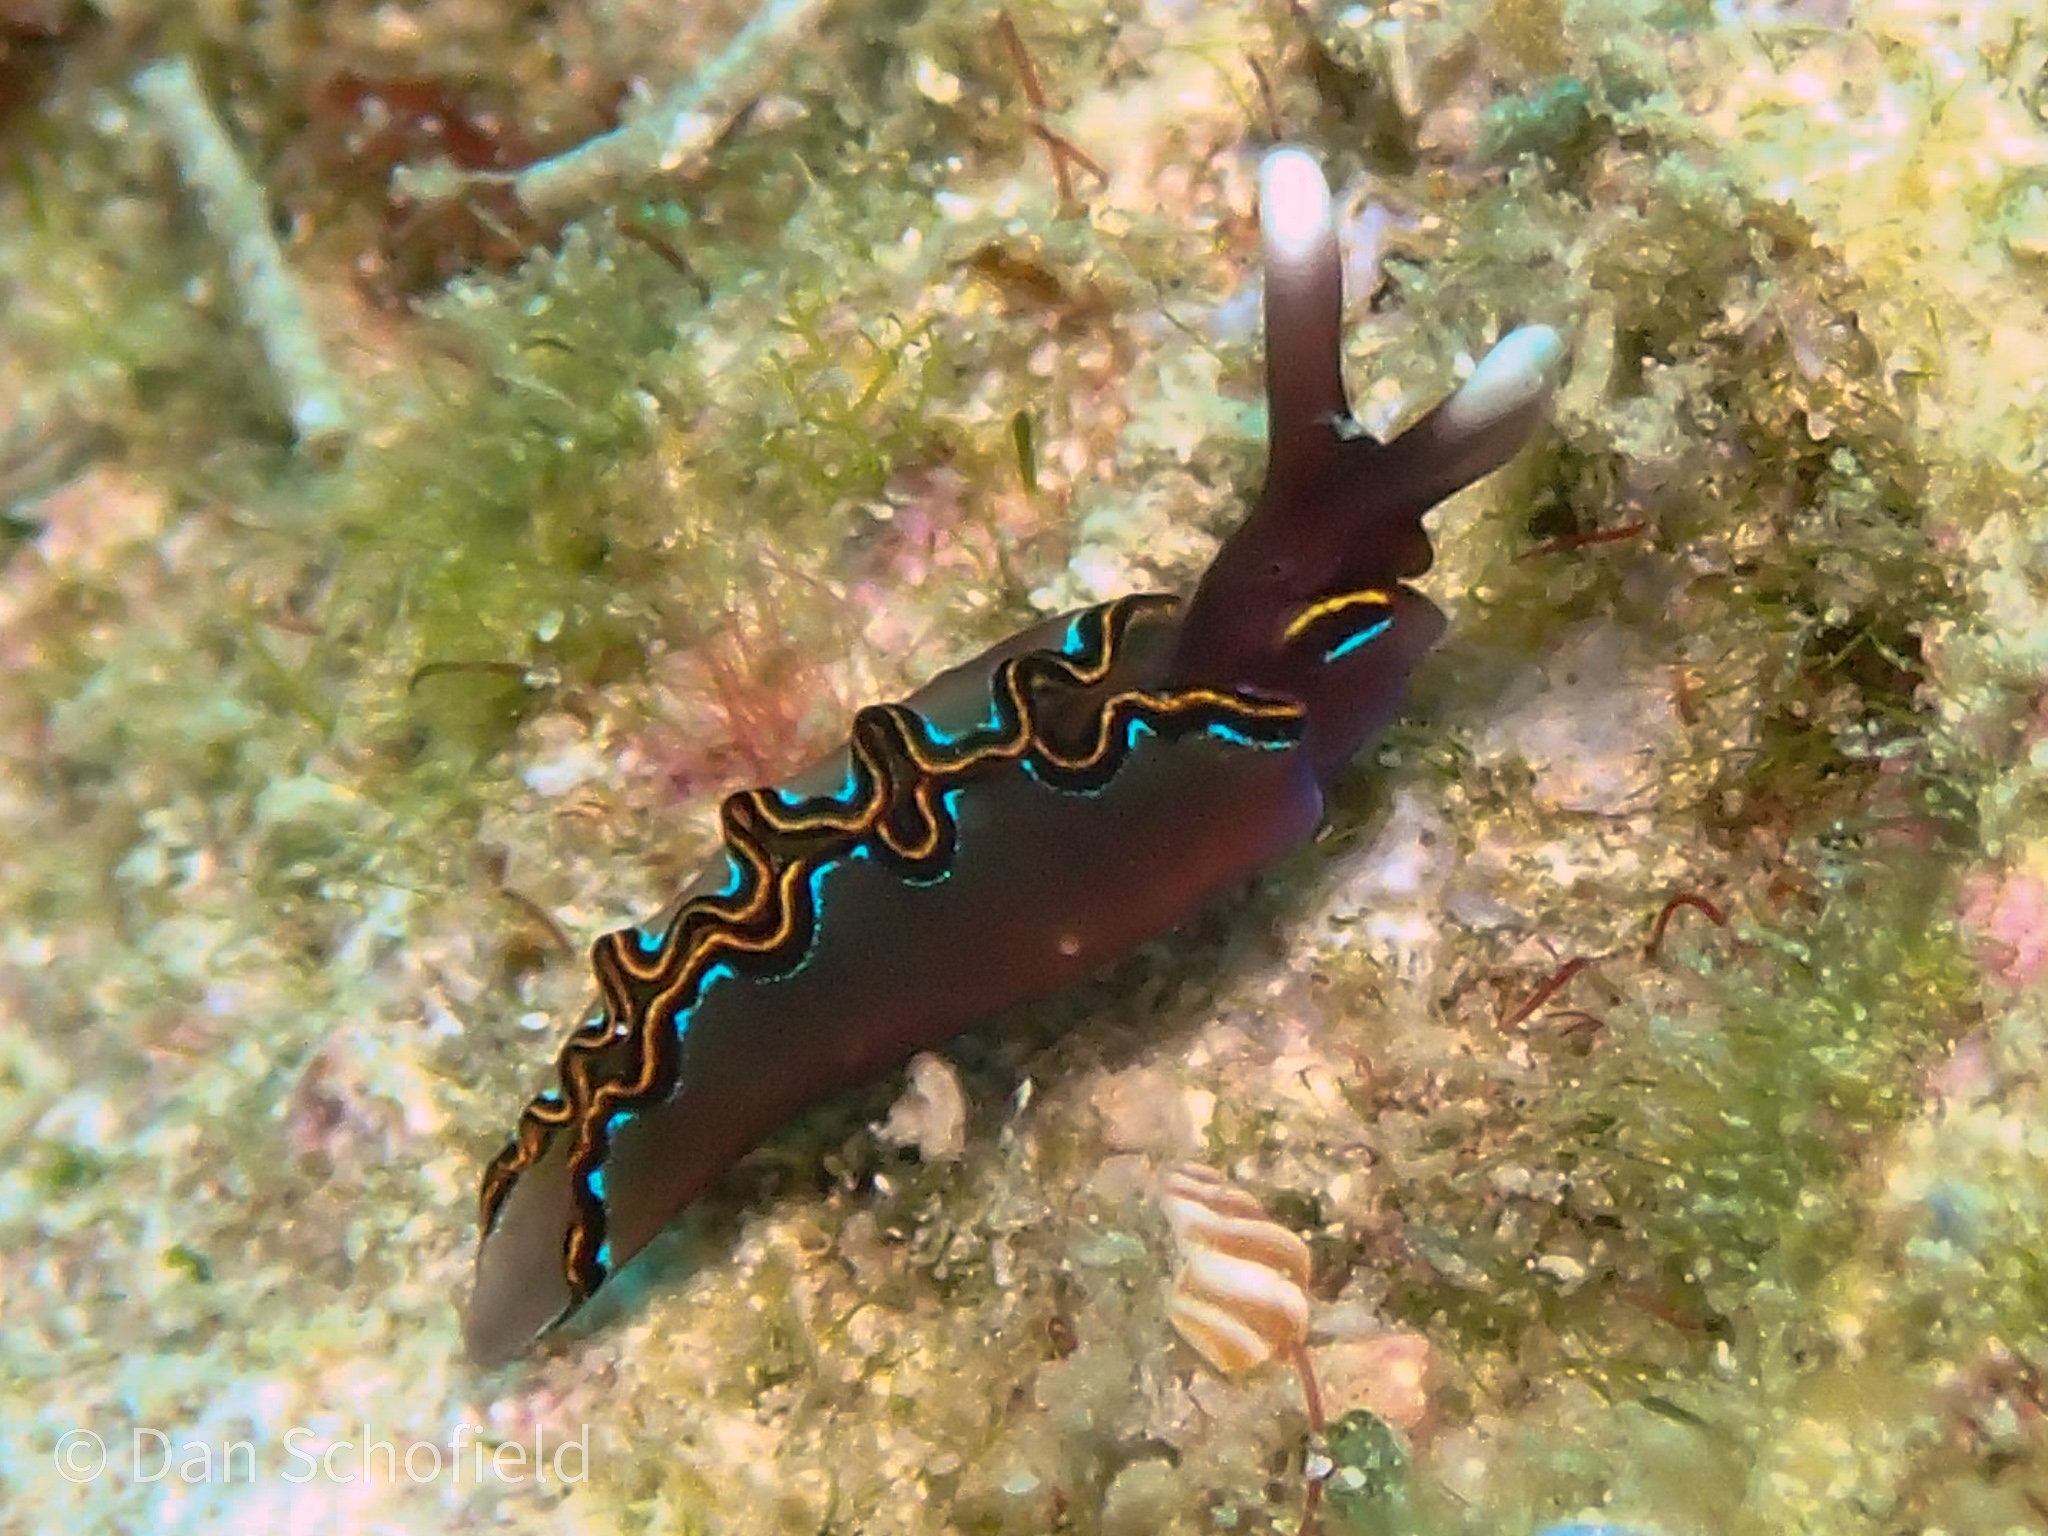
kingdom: Animalia
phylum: Mollusca
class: Gastropoda
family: Plakobranchidae
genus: Thuridilla
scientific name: Thuridilla livida
